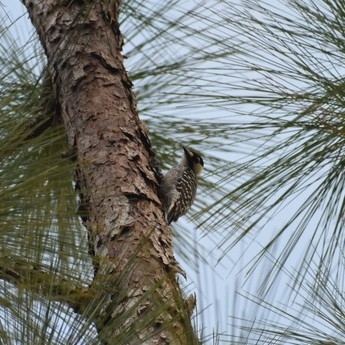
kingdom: Animalia
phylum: Chordata
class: Aves
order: Piciformes
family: Picidae
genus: Leuconotopicus
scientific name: Leuconotopicus borealis
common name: Red-cockaded woodpecker
